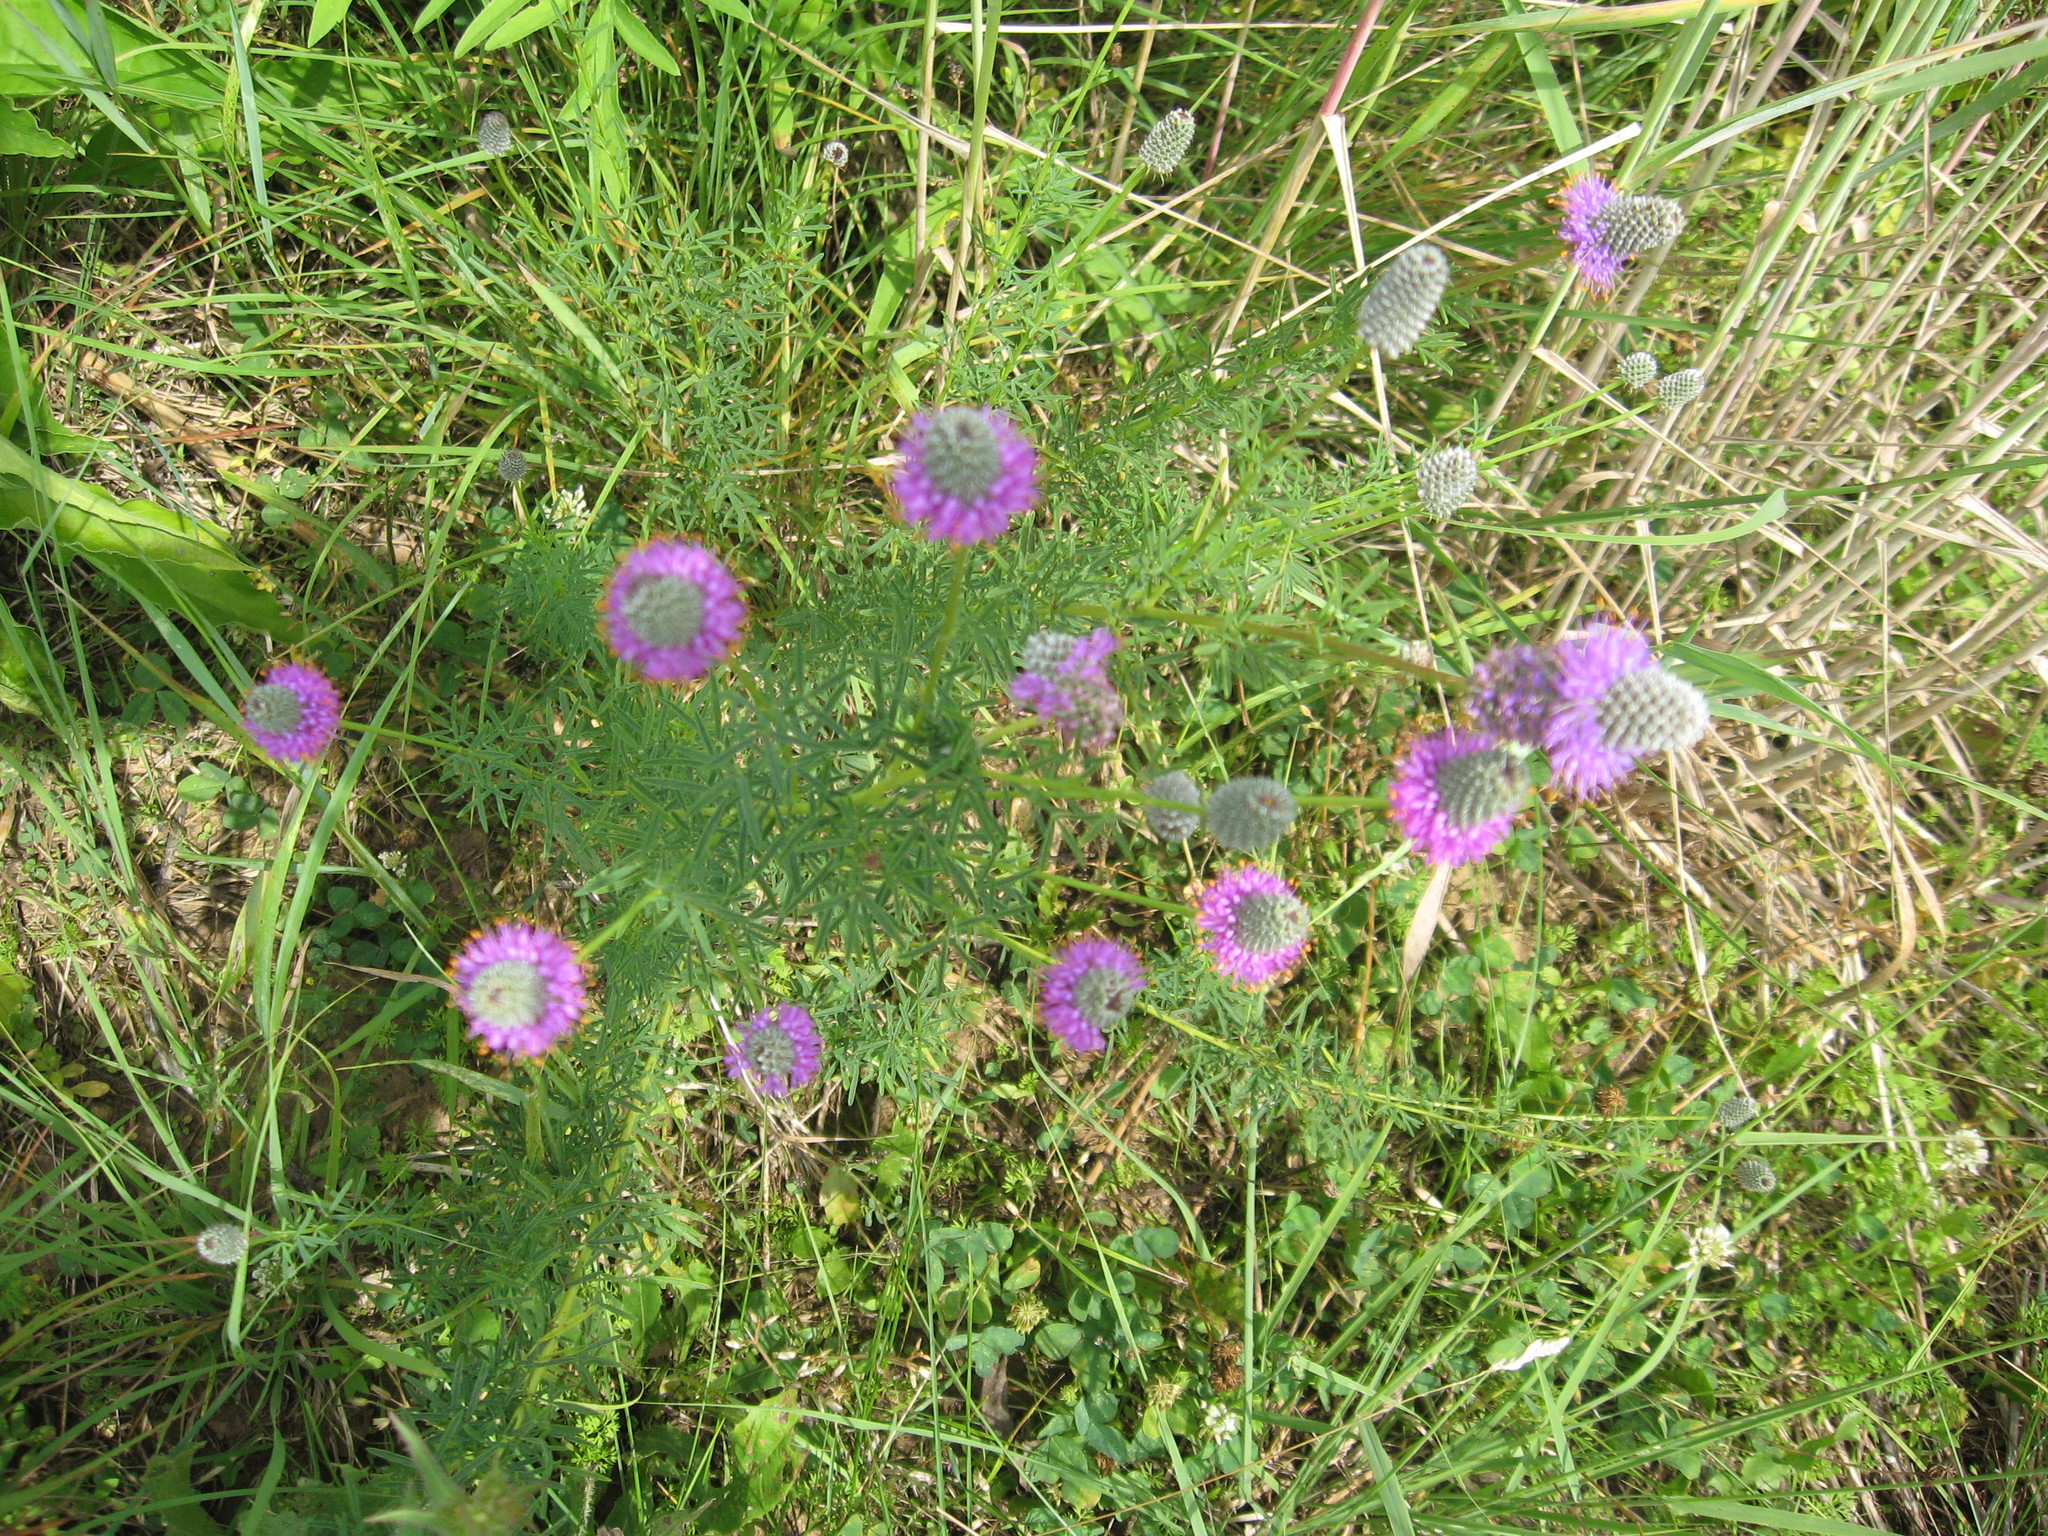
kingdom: Plantae
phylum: Tracheophyta
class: Magnoliopsida
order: Fabales
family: Fabaceae
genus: Dalea
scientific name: Dalea purpurea
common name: Purple prairie-clover
